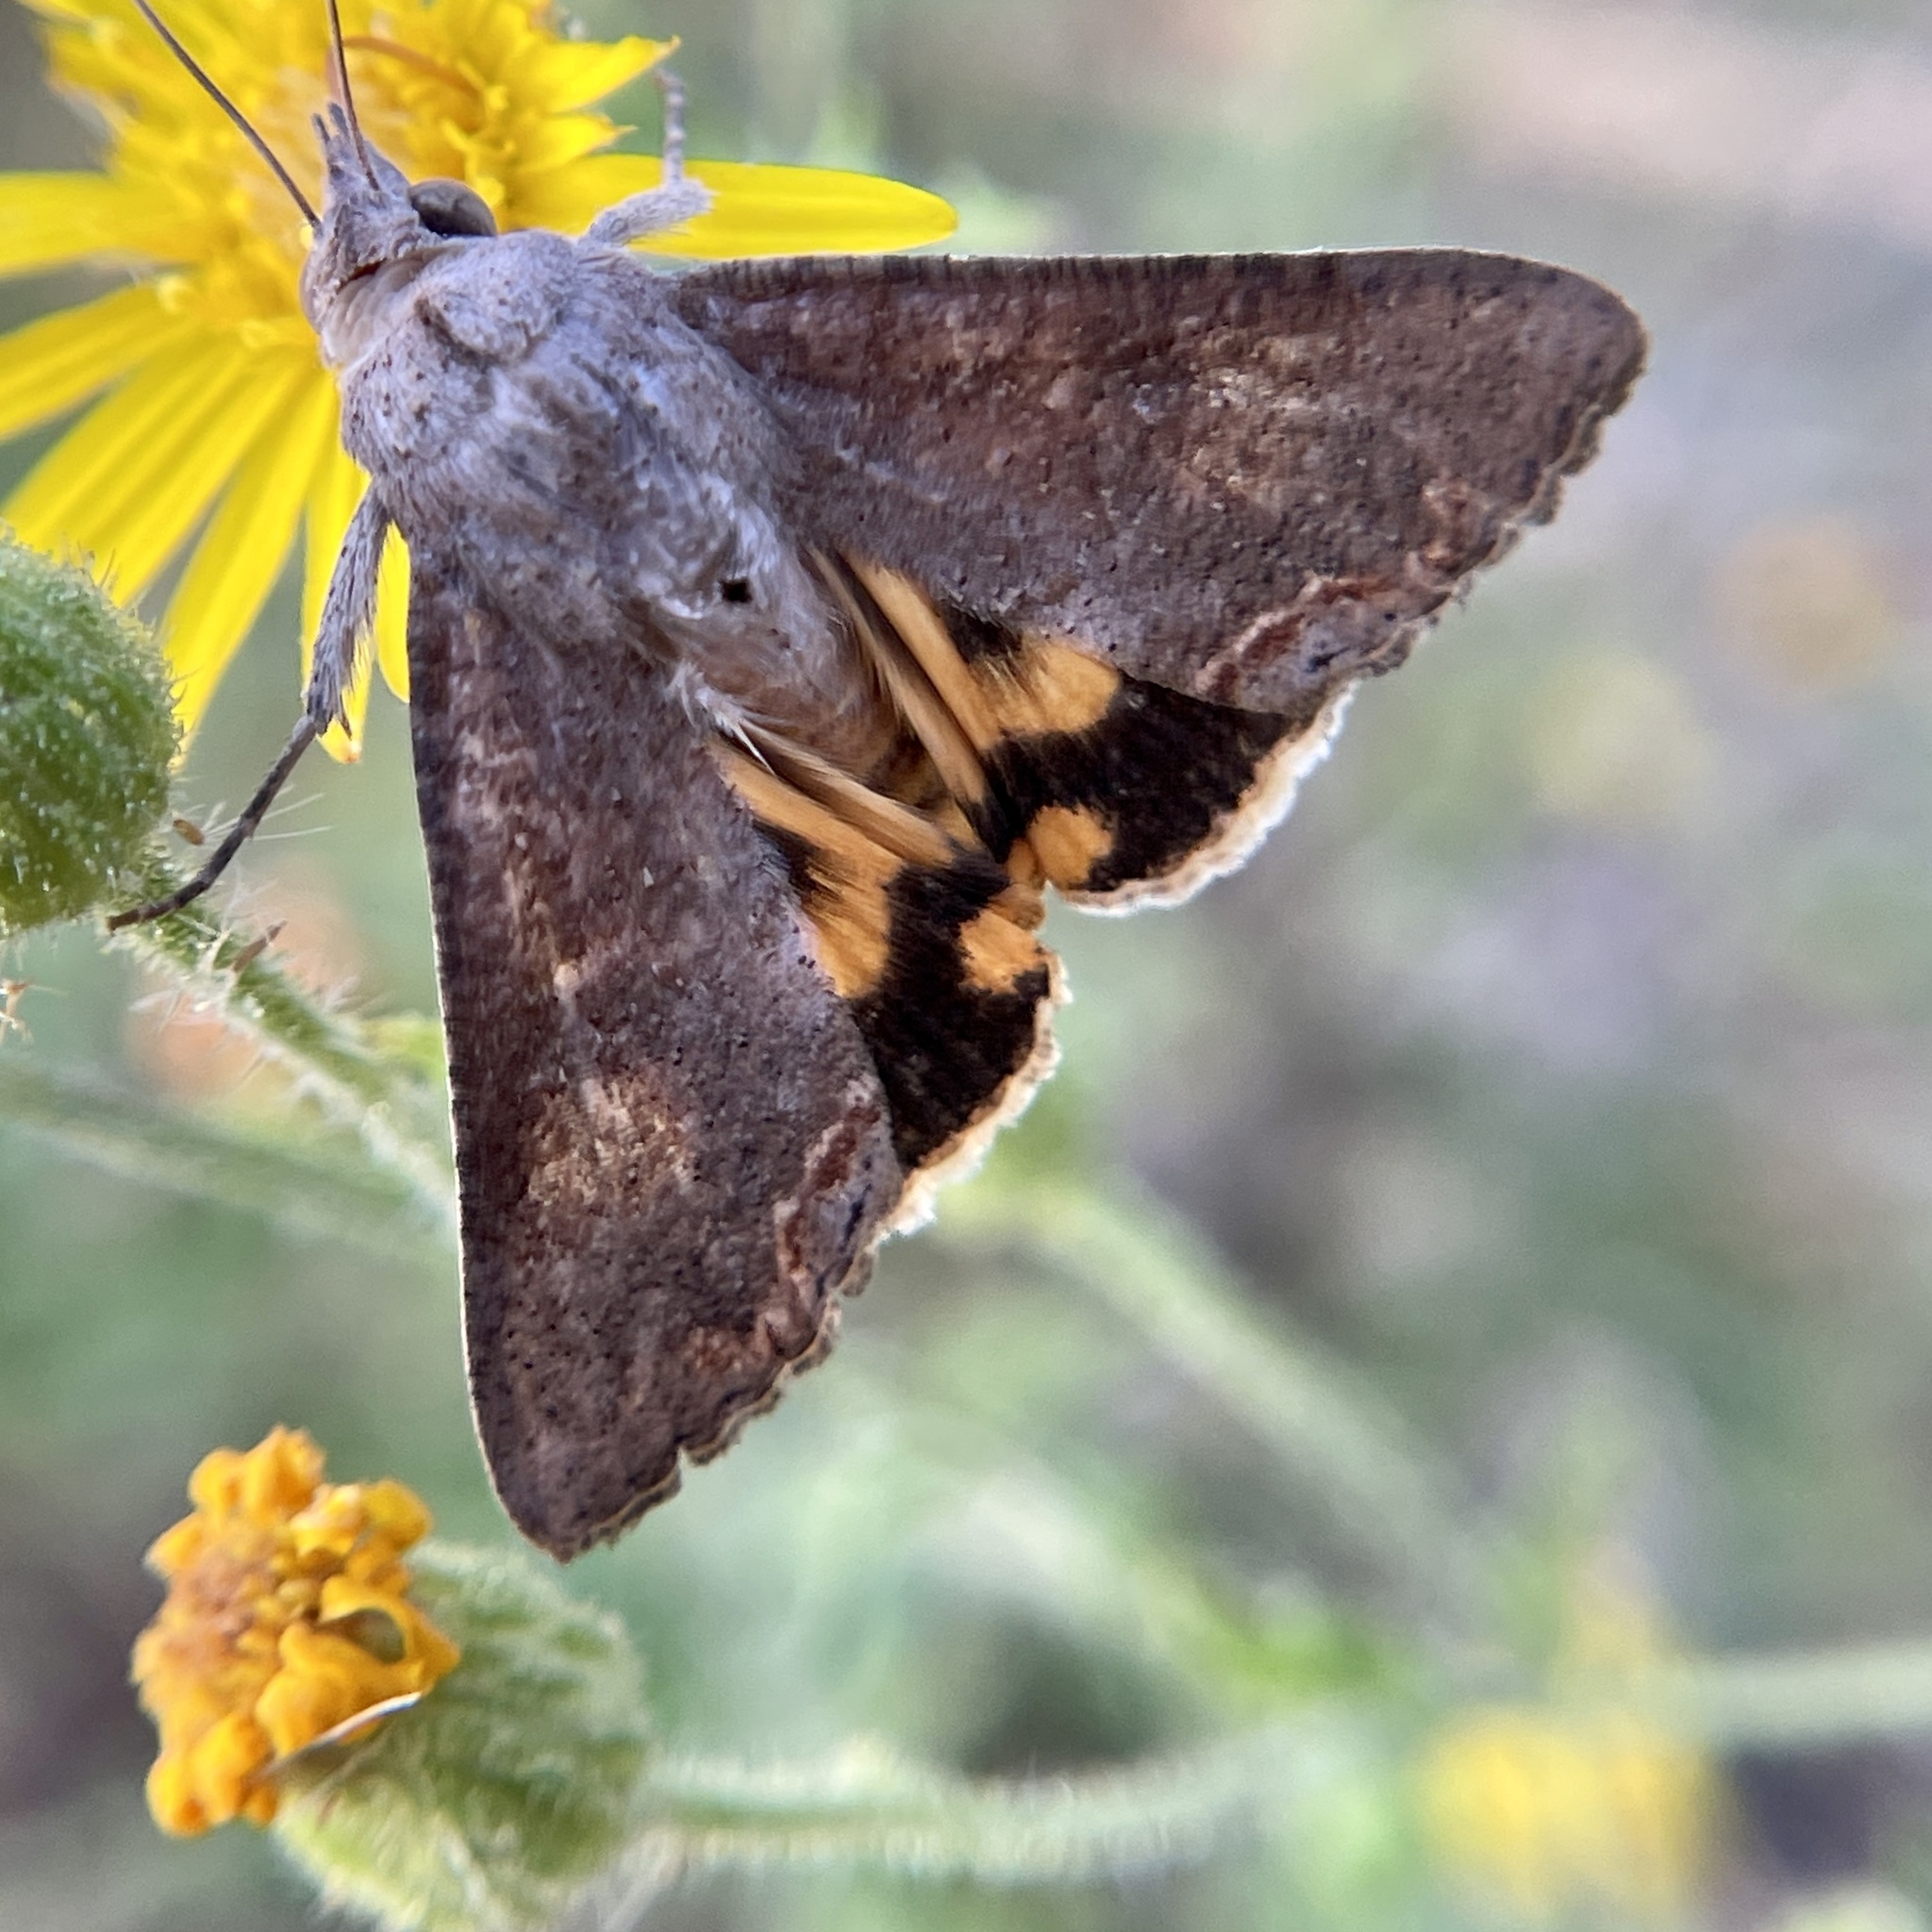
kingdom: Animalia
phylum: Arthropoda
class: Insecta
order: Lepidoptera
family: Erebidae
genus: Hypocala
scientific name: Hypocala andremona
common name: Hypocala moth
